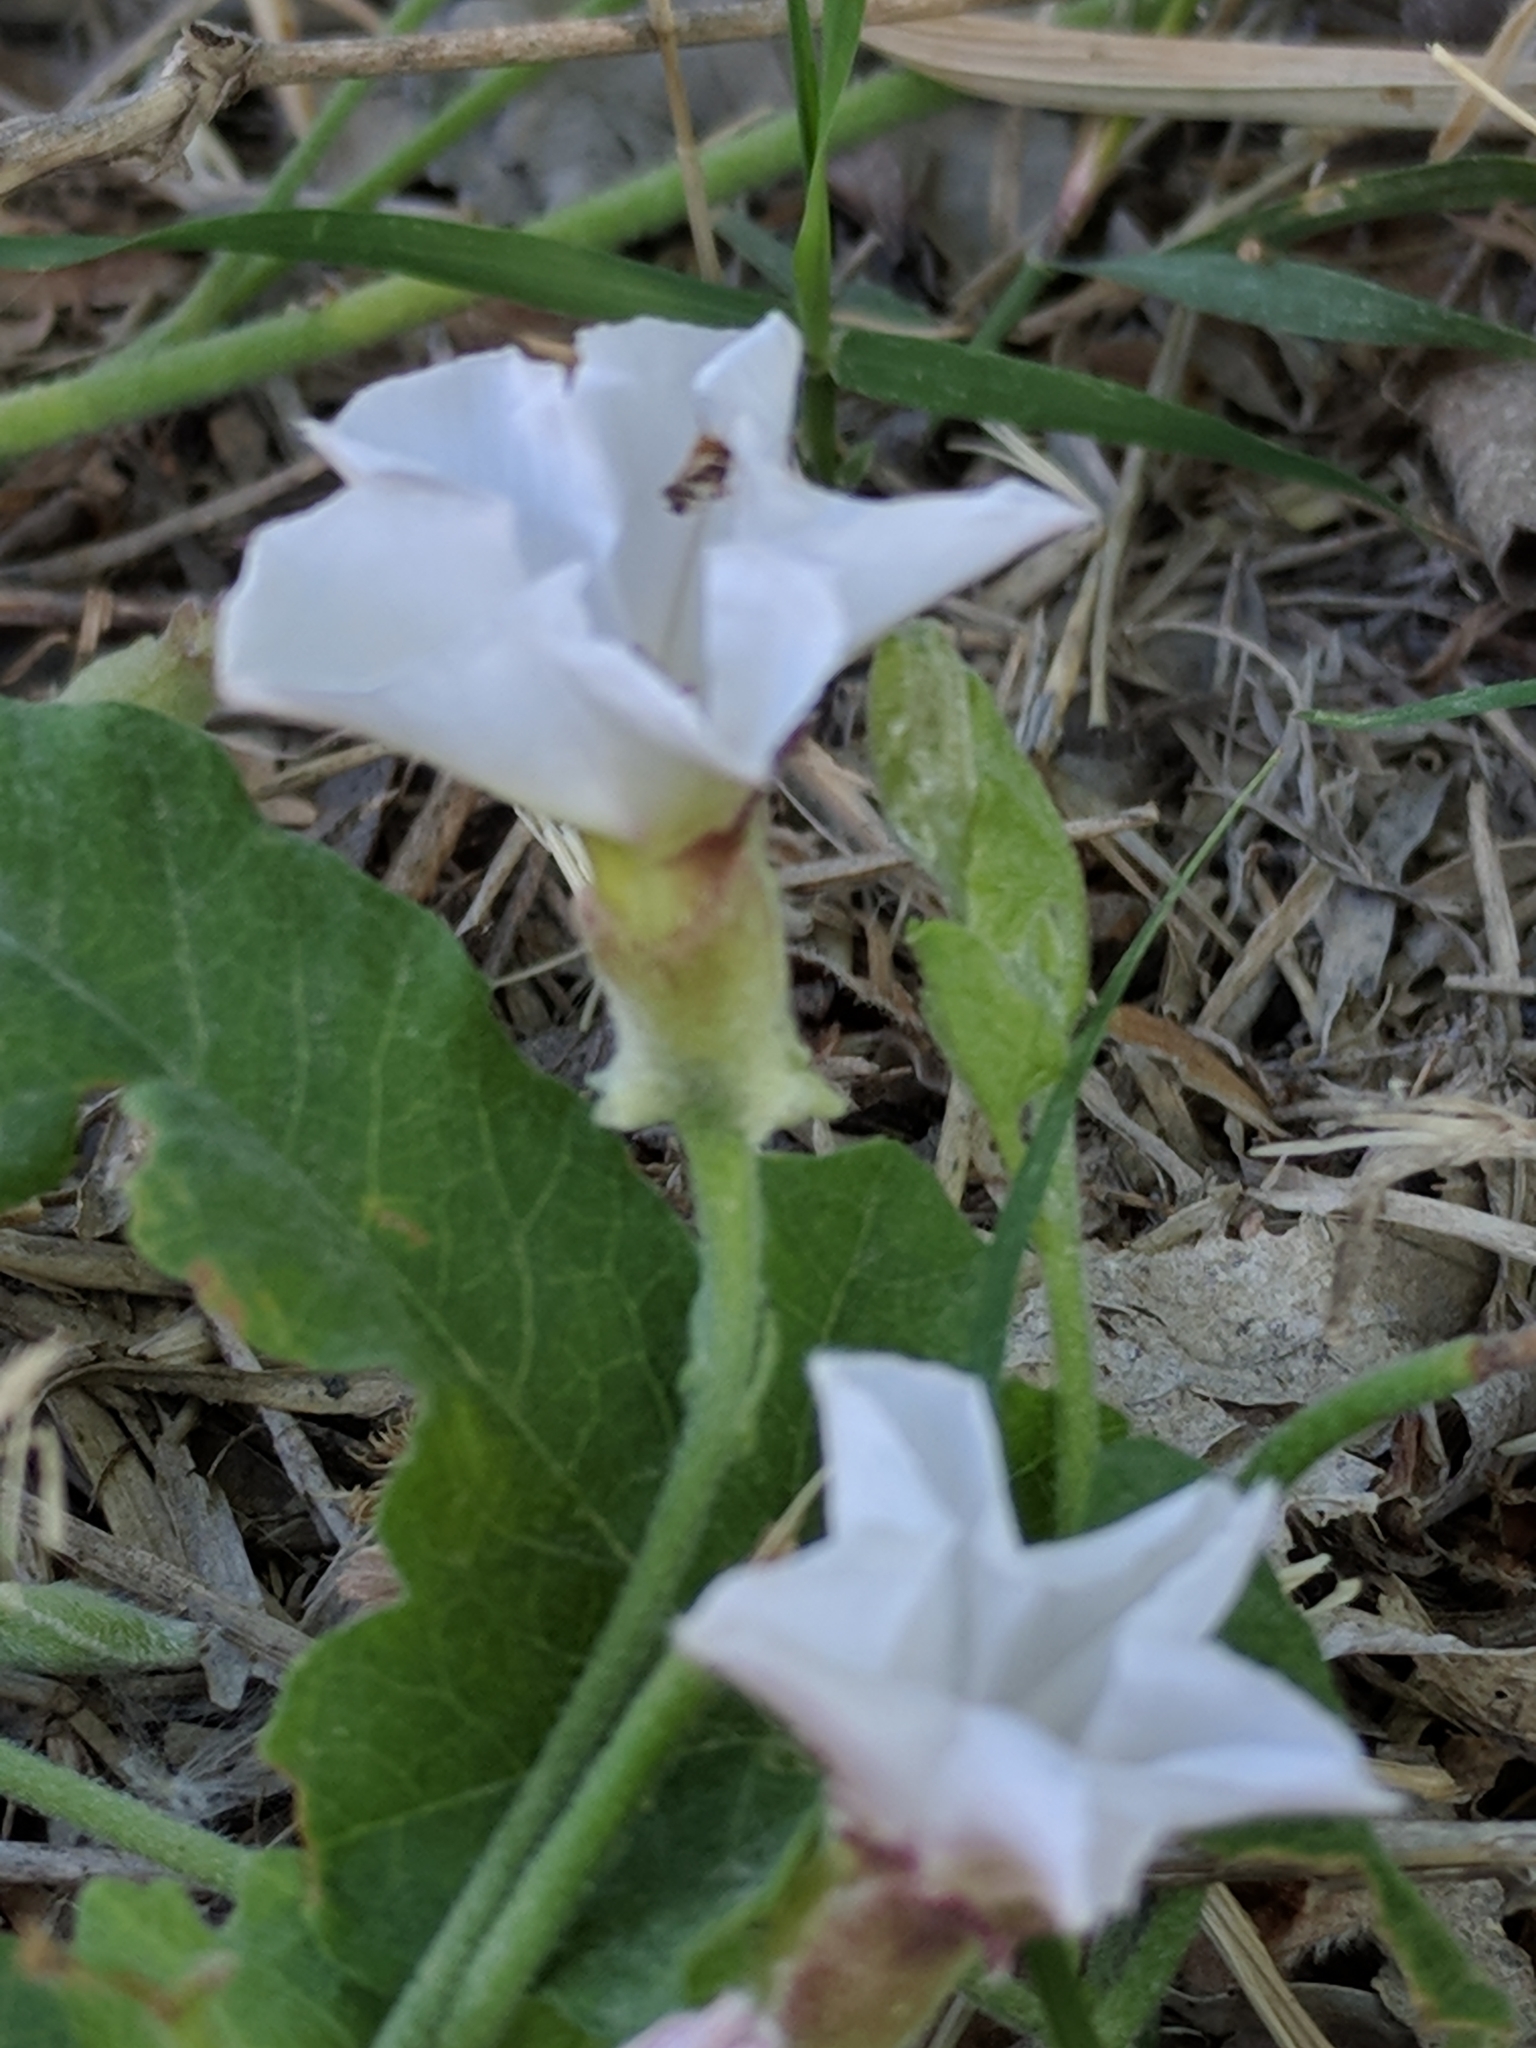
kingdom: Plantae
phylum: Tracheophyta
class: Magnoliopsida
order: Solanales
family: Convolvulaceae
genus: Convolvulus
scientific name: Convolvulus equitans
